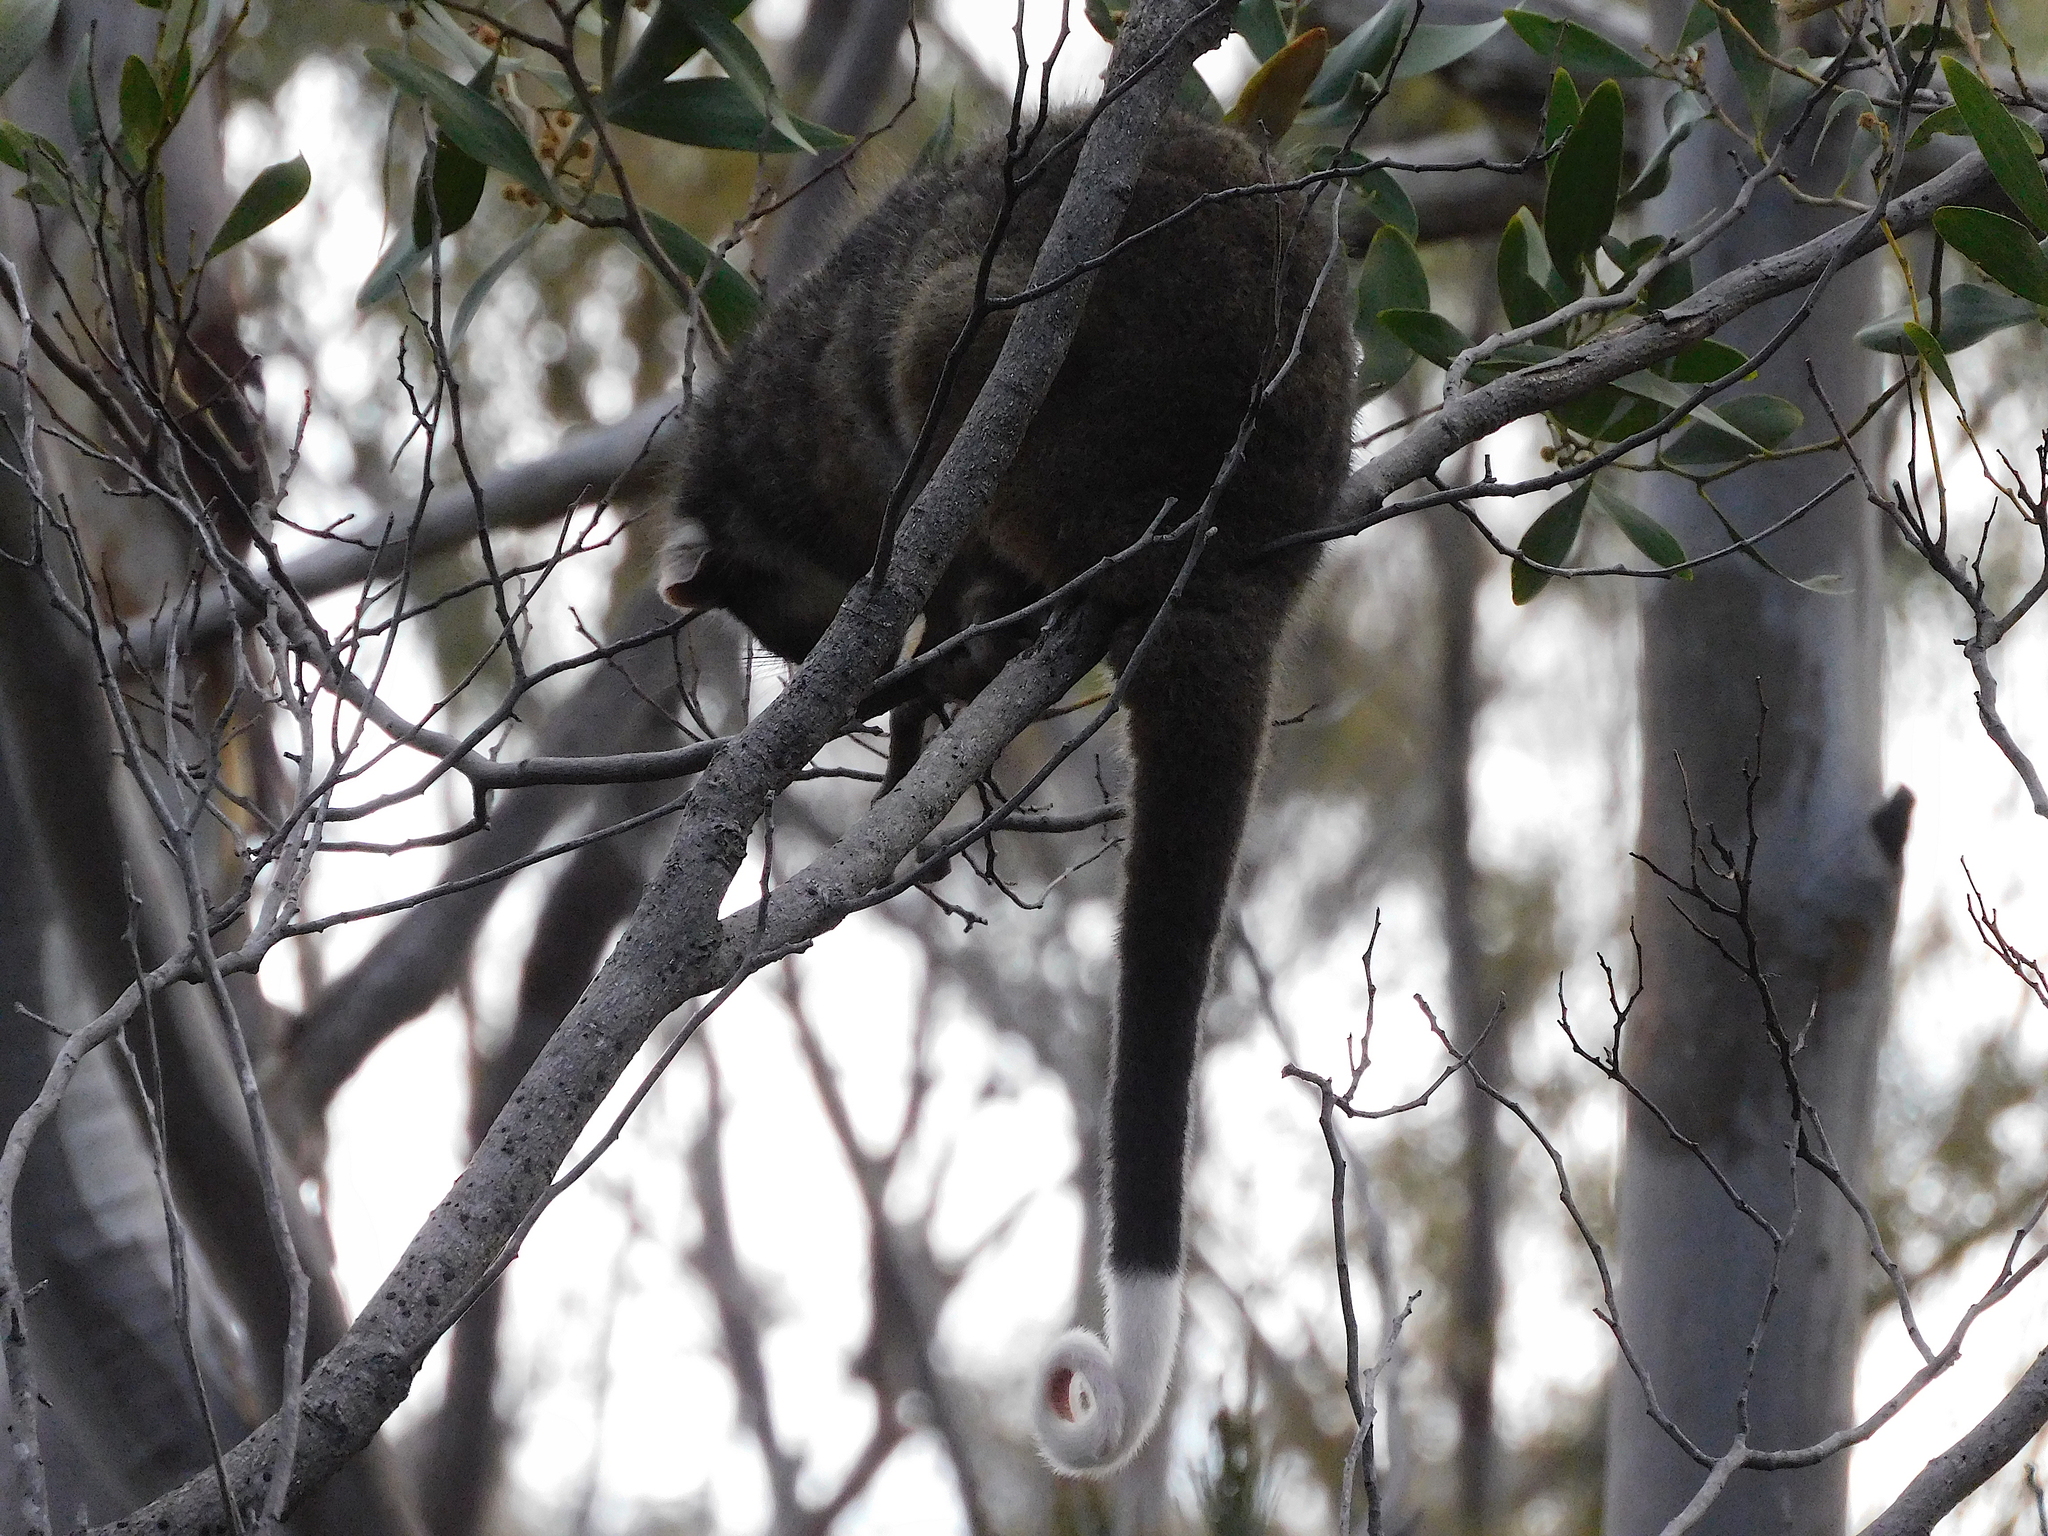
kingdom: Animalia
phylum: Chordata
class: Mammalia
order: Diprotodontia
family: Pseudocheiridae
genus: Pseudocheirus
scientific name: Pseudocheirus peregrinus
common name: Common ringtail possum
